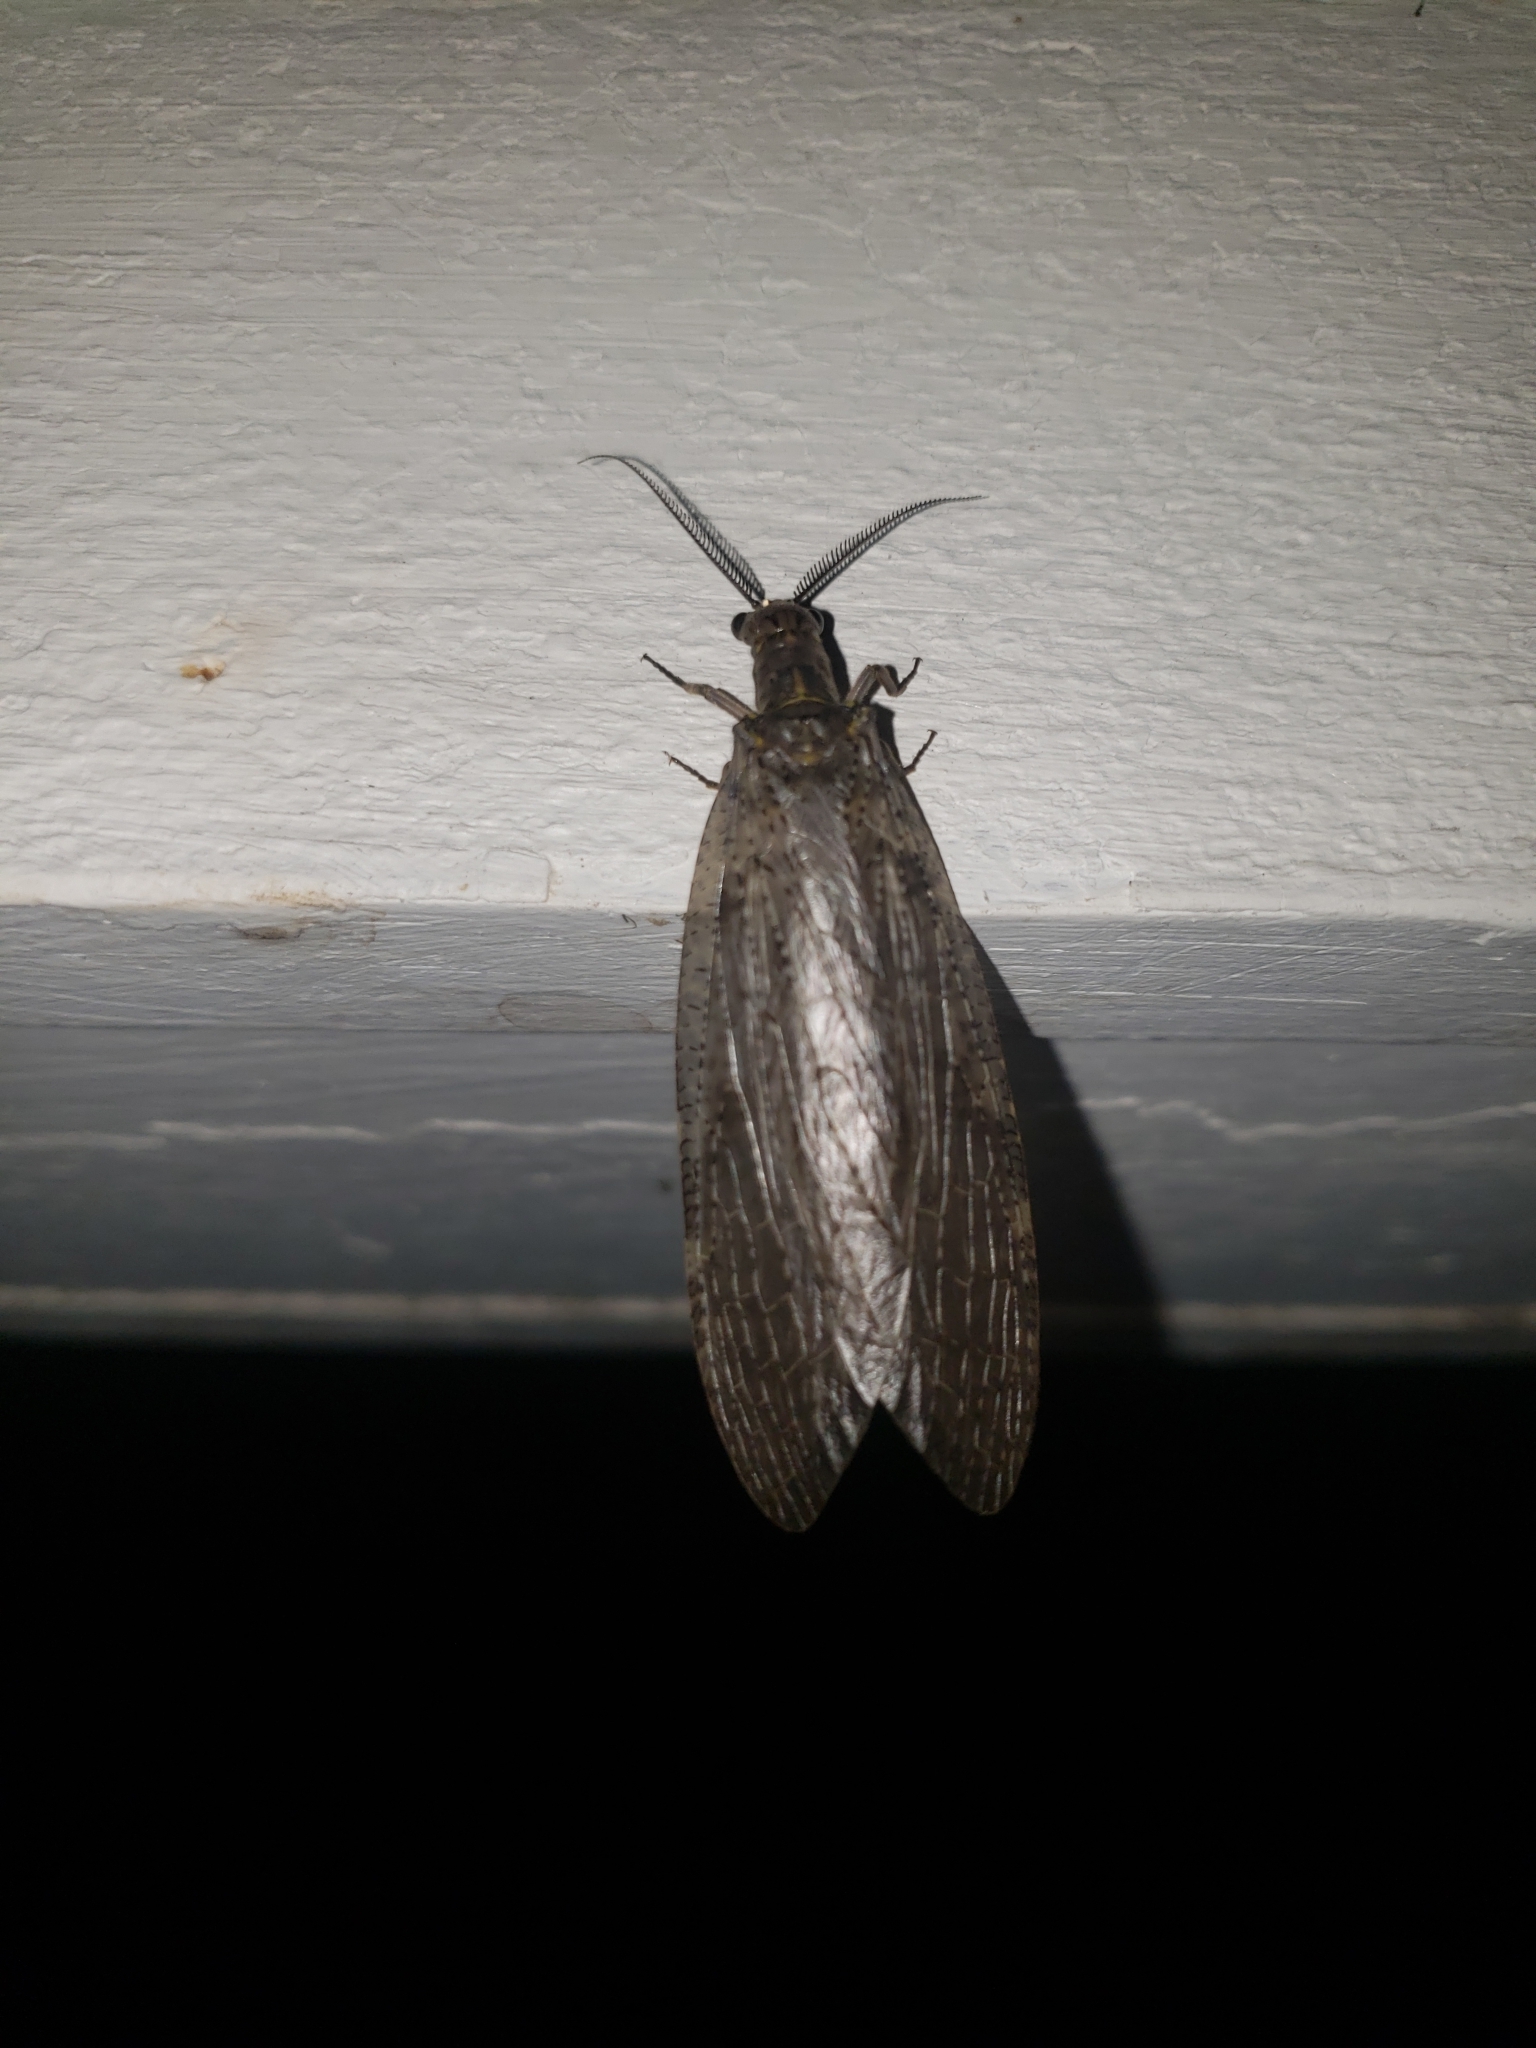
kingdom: Animalia
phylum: Arthropoda
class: Insecta
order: Megaloptera
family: Corydalidae
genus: Chauliodes
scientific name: Chauliodes pectinicornis
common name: Summer fishfly
